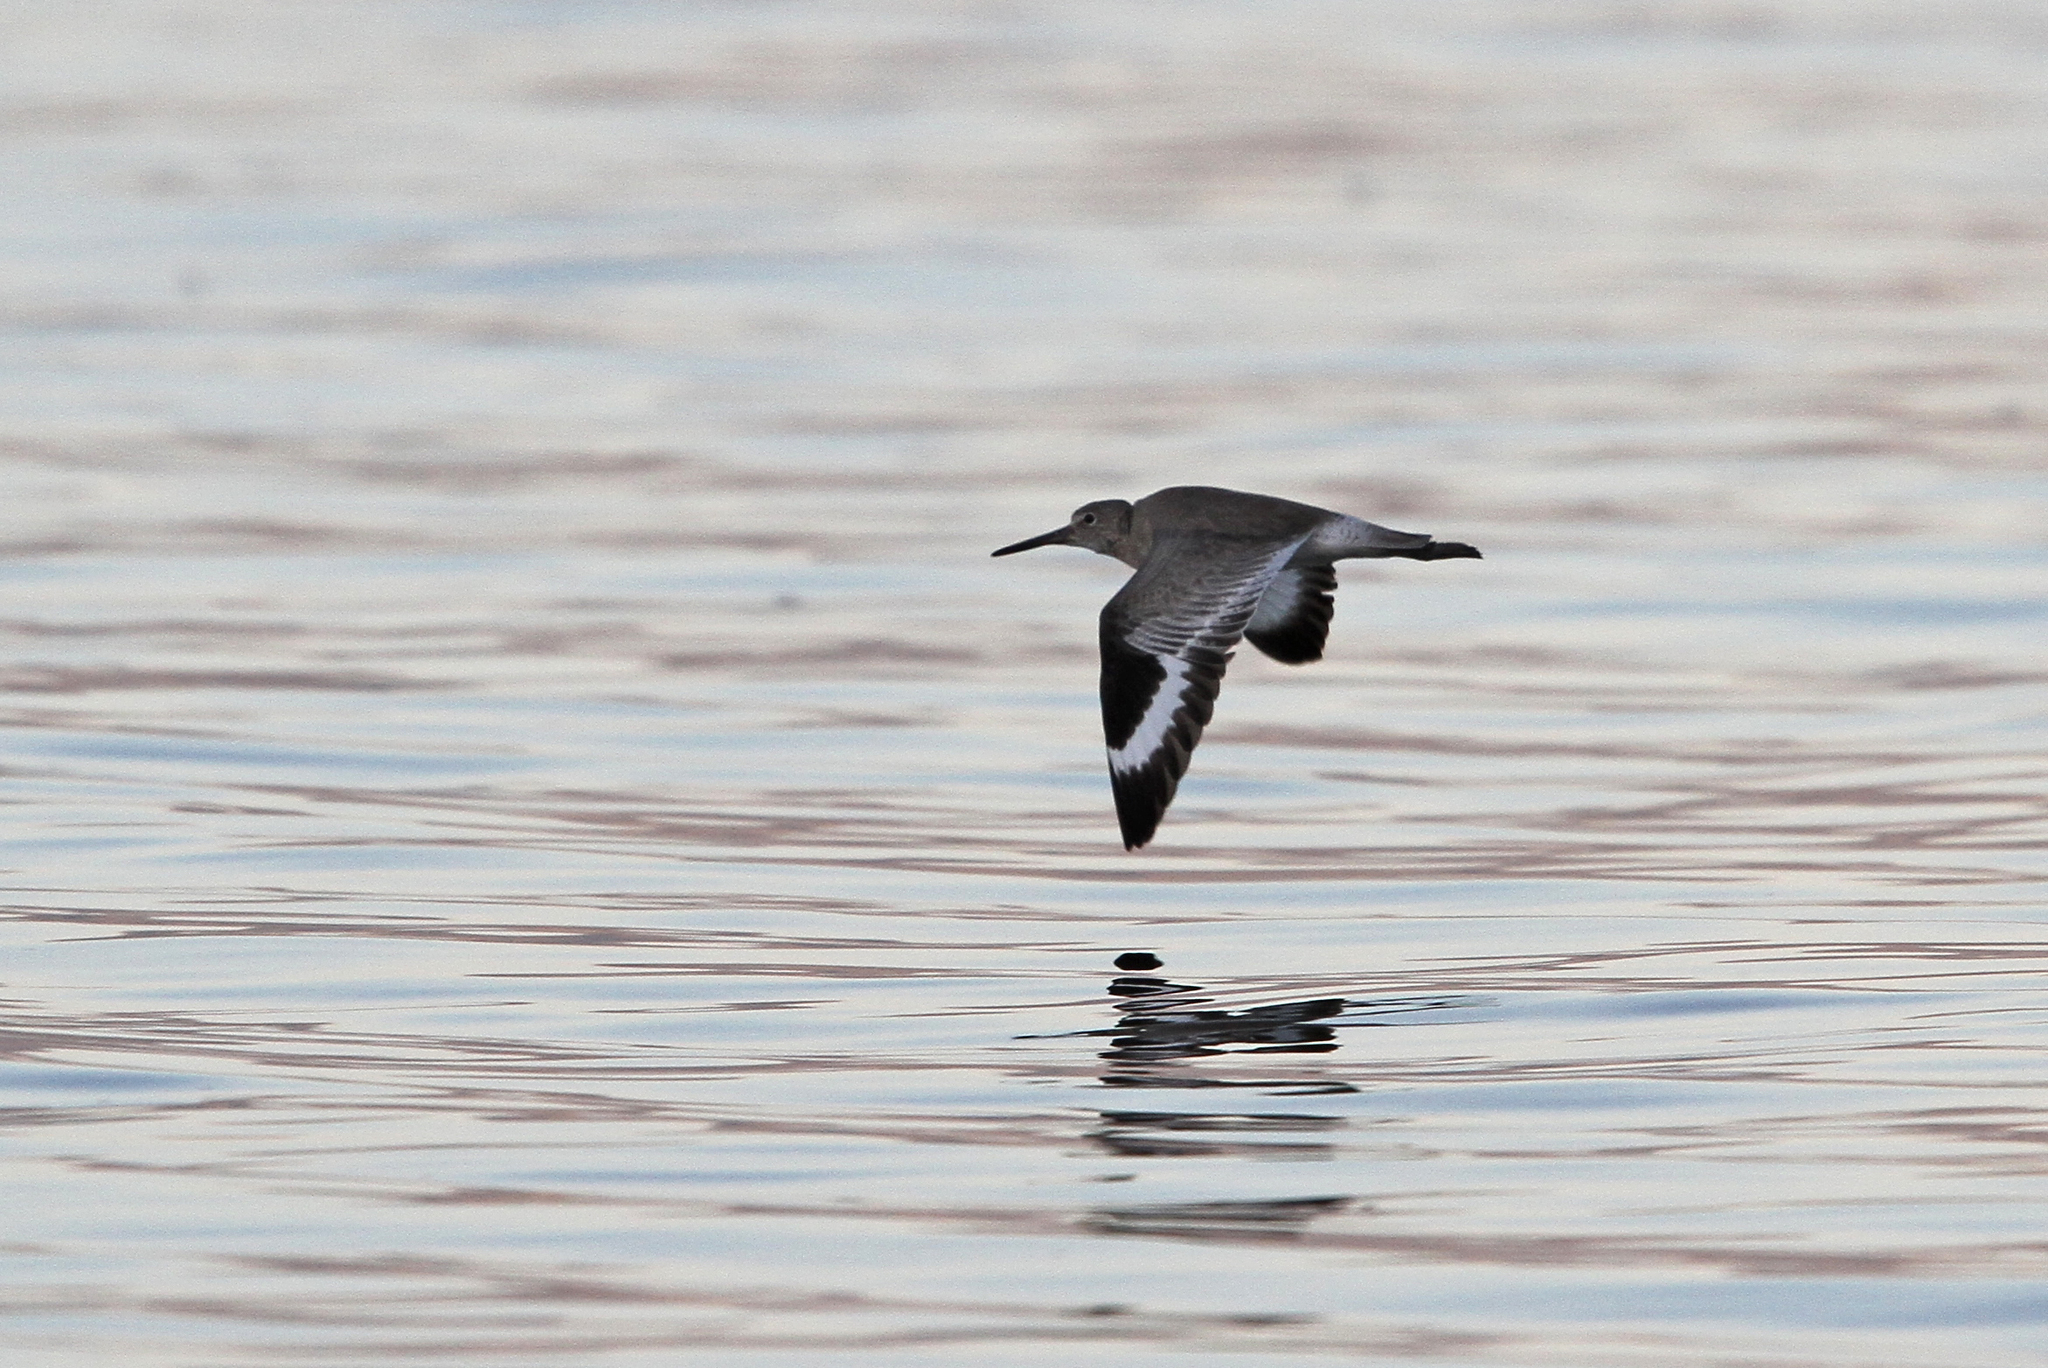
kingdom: Animalia
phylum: Chordata
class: Aves
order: Charadriiformes
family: Scolopacidae
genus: Tringa
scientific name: Tringa semipalmata
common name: Willet
